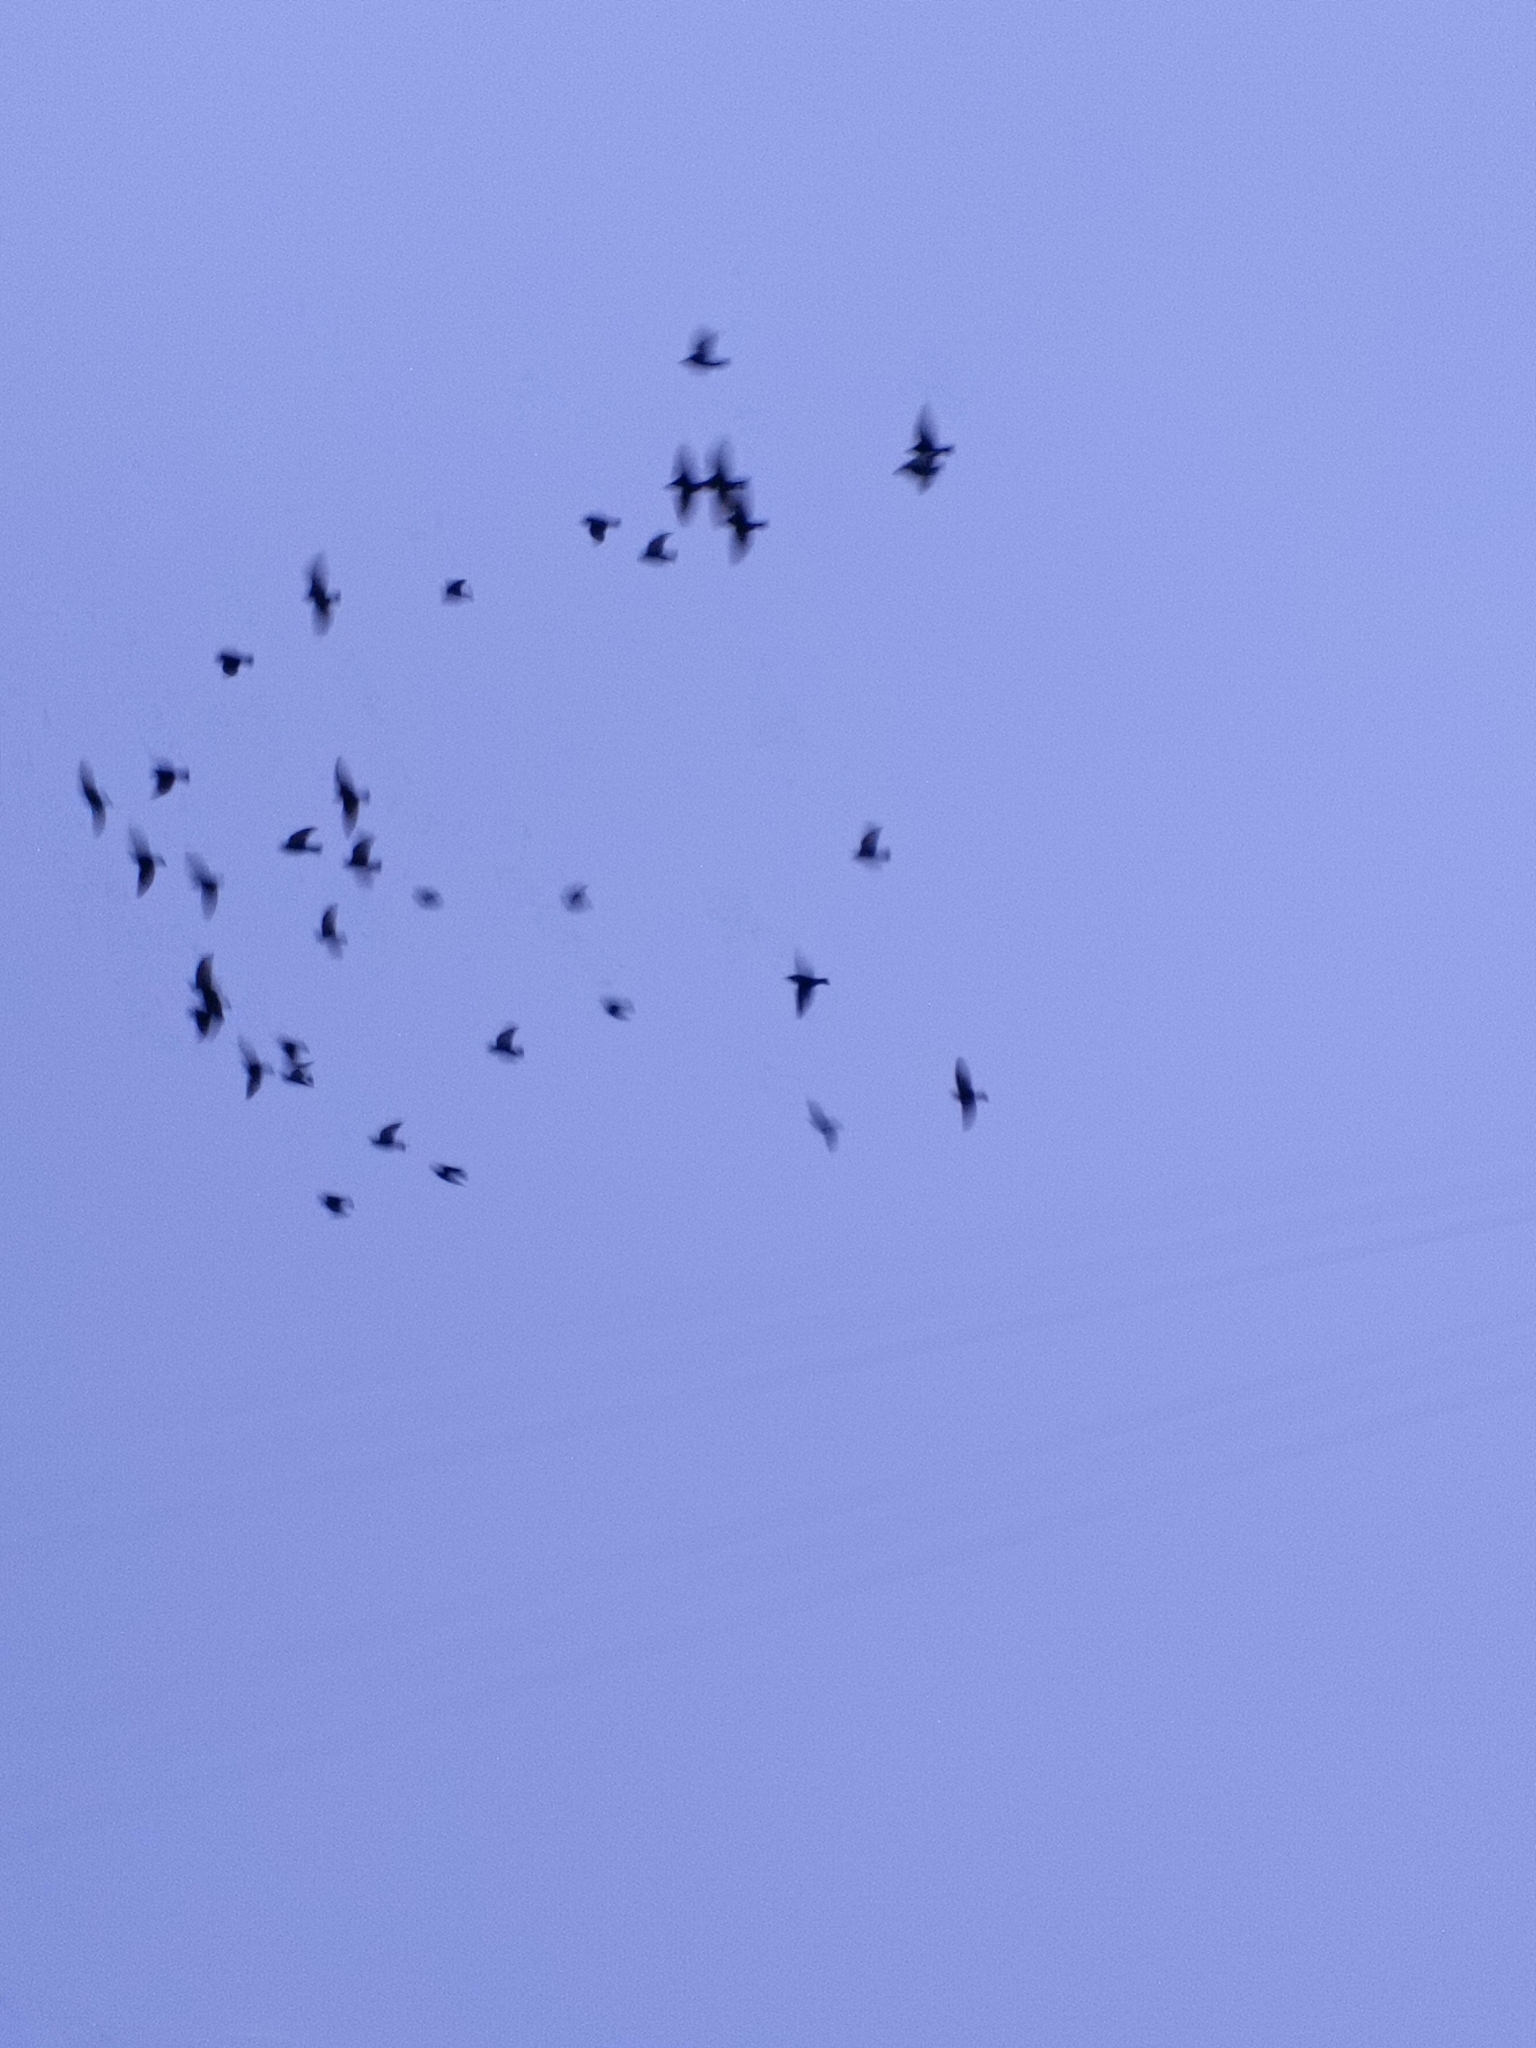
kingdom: Animalia
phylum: Chordata
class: Aves
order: Passeriformes
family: Sturnidae
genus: Sturnus
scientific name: Sturnus vulgaris
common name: Common starling
